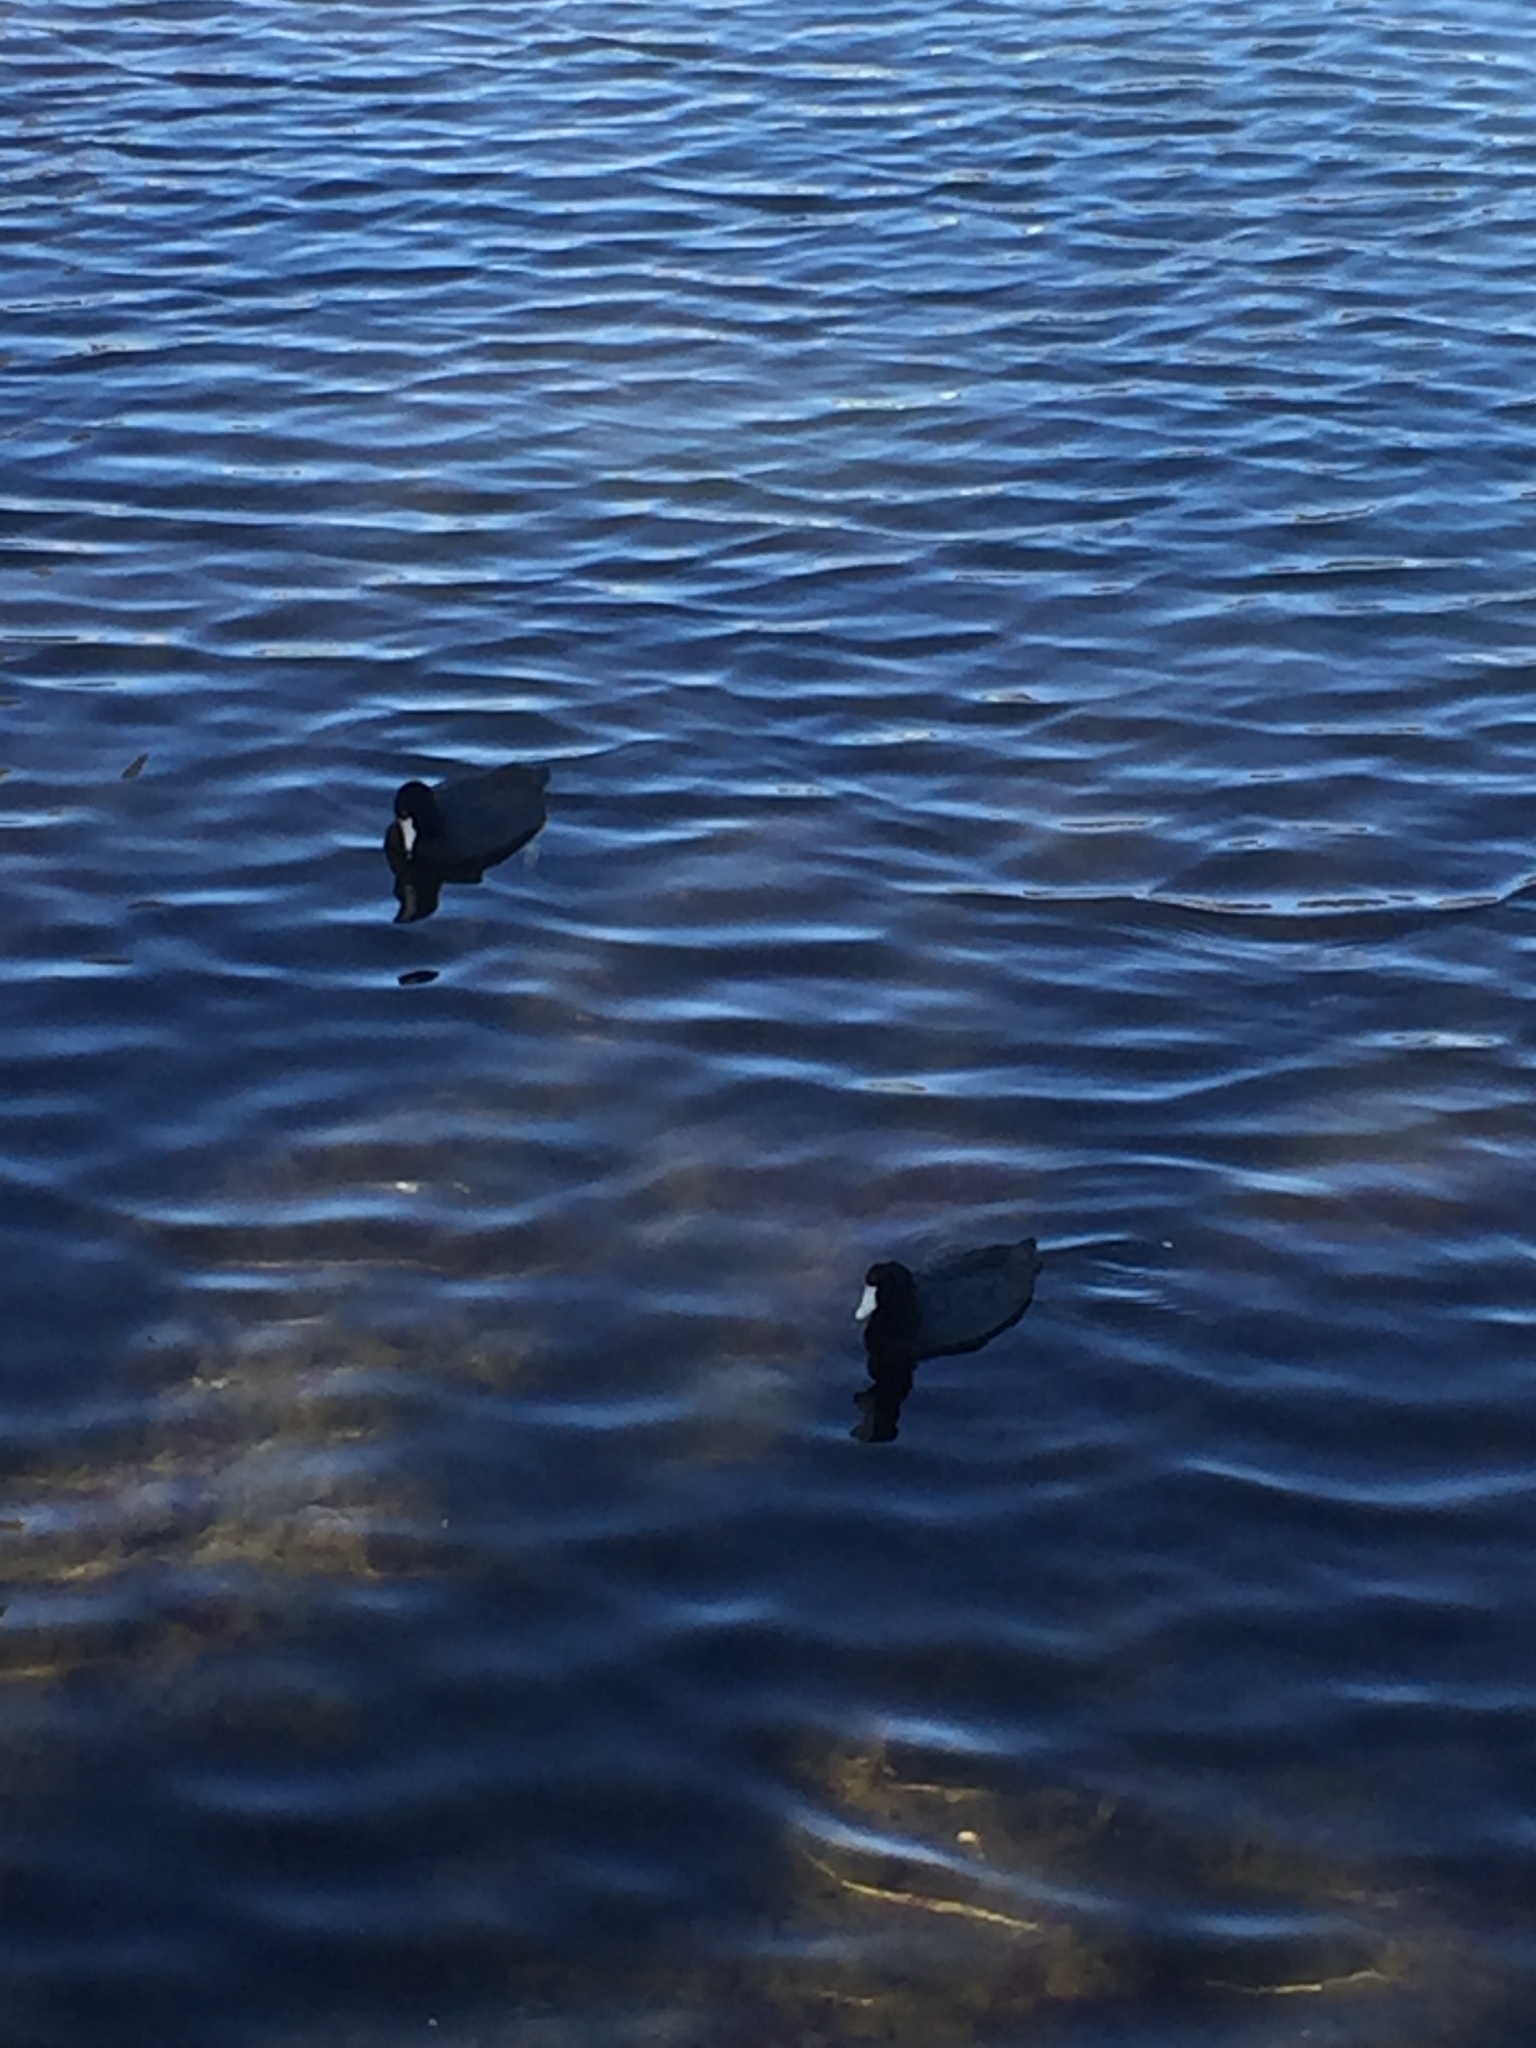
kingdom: Animalia
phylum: Chordata
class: Aves
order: Gruiformes
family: Rallidae
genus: Fulica
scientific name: Fulica americana
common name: American coot
